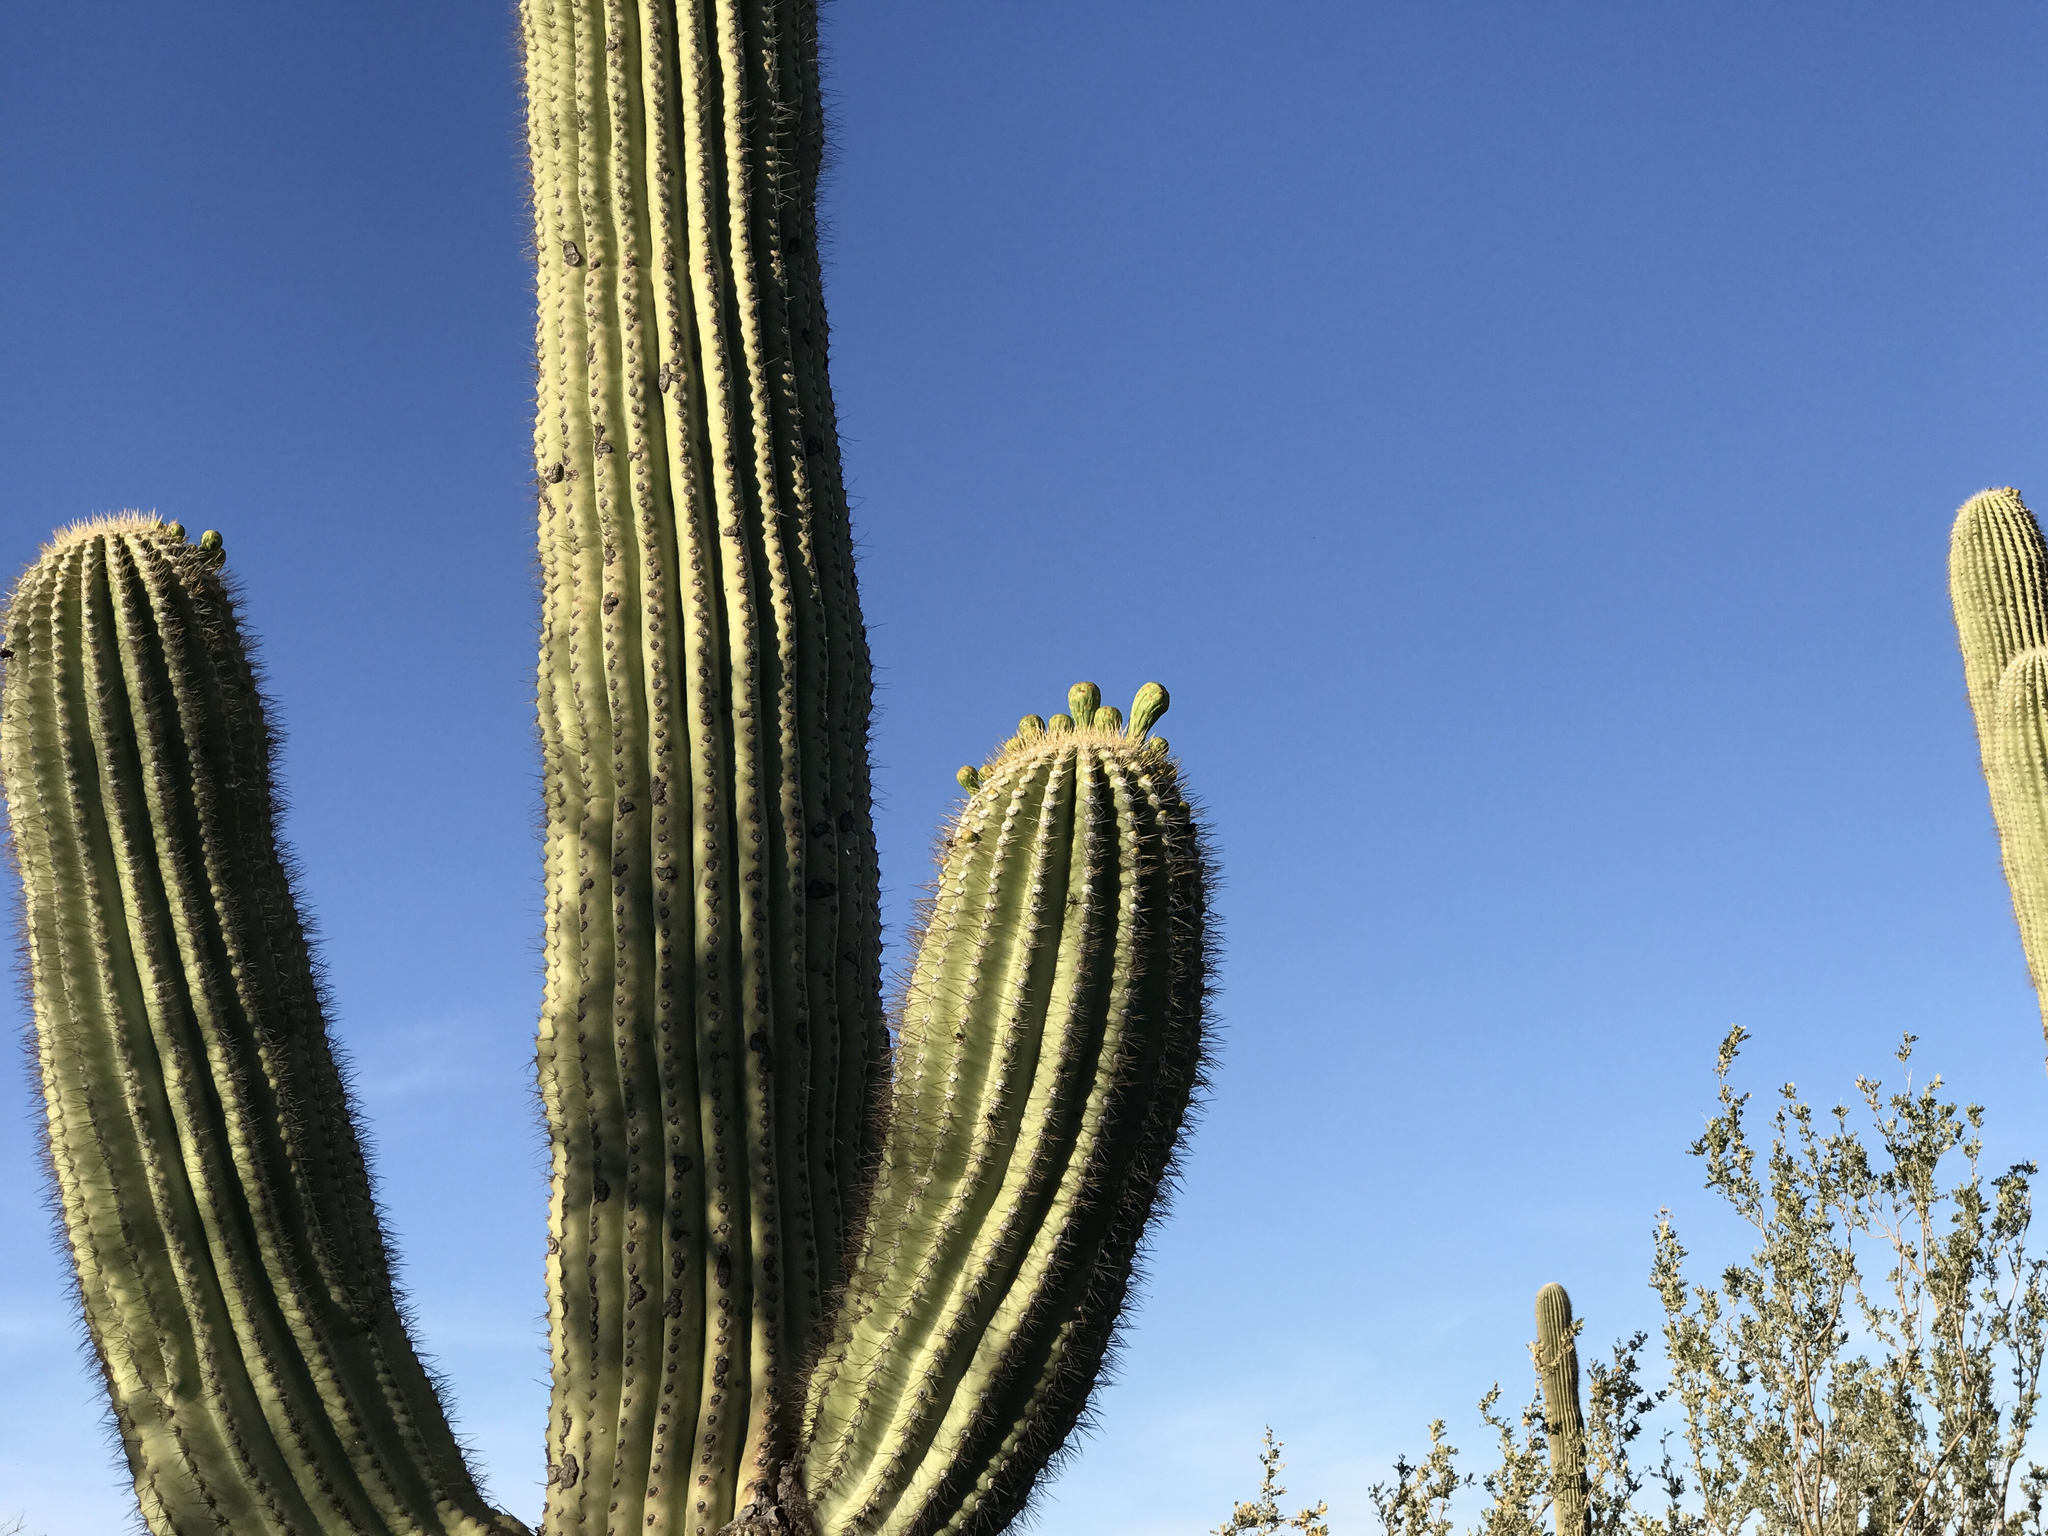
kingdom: Plantae
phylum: Tracheophyta
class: Magnoliopsida
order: Caryophyllales
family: Cactaceae
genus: Carnegiea
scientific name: Carnegiea gigantea
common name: Saguaro
